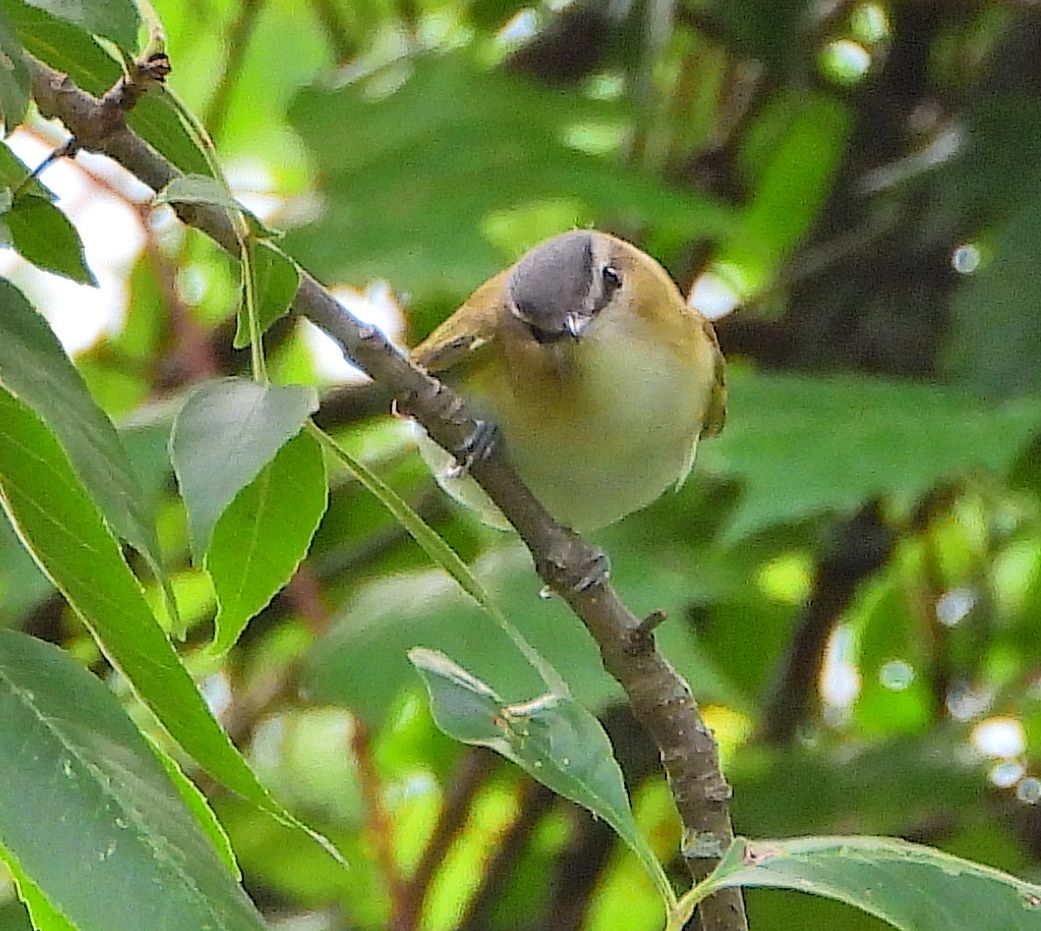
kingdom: Animalia
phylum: Chordata
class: Aves
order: Passeriformes
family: Vireonidae
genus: Vireo
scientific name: Vireo olivaceus
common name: Red-eyed vireo
